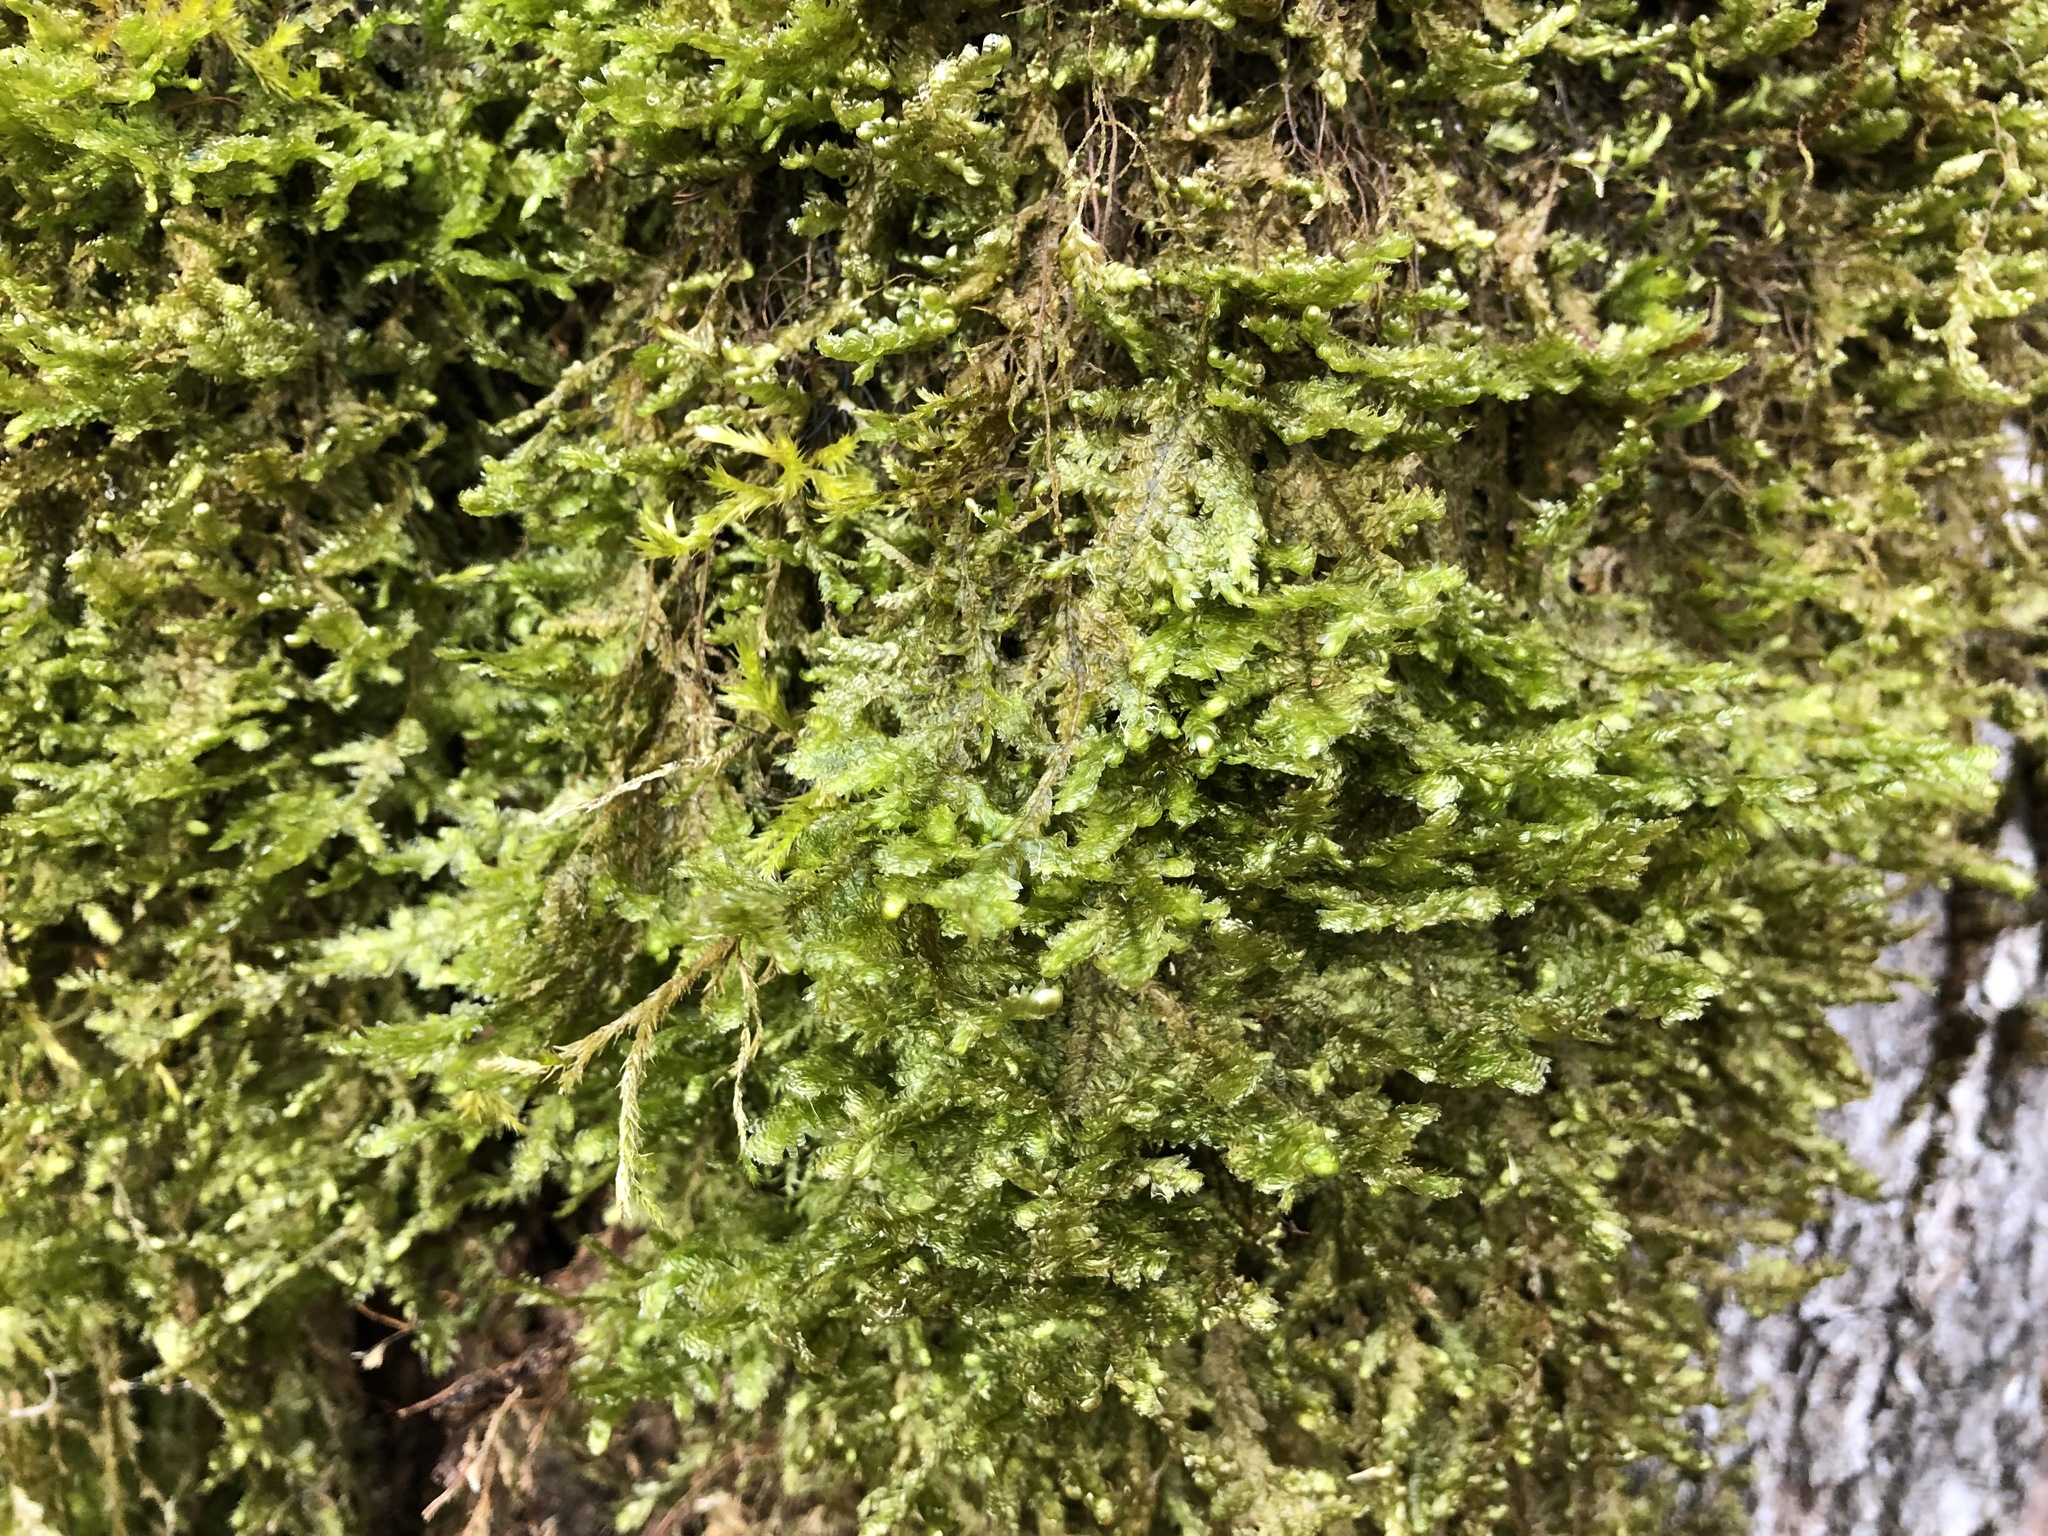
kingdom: Plantae
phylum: Bryophyta
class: Bryopsida
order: Hypnales
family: Neckeraceae
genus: Exsertotheca
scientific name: Exsertotheca crispa
